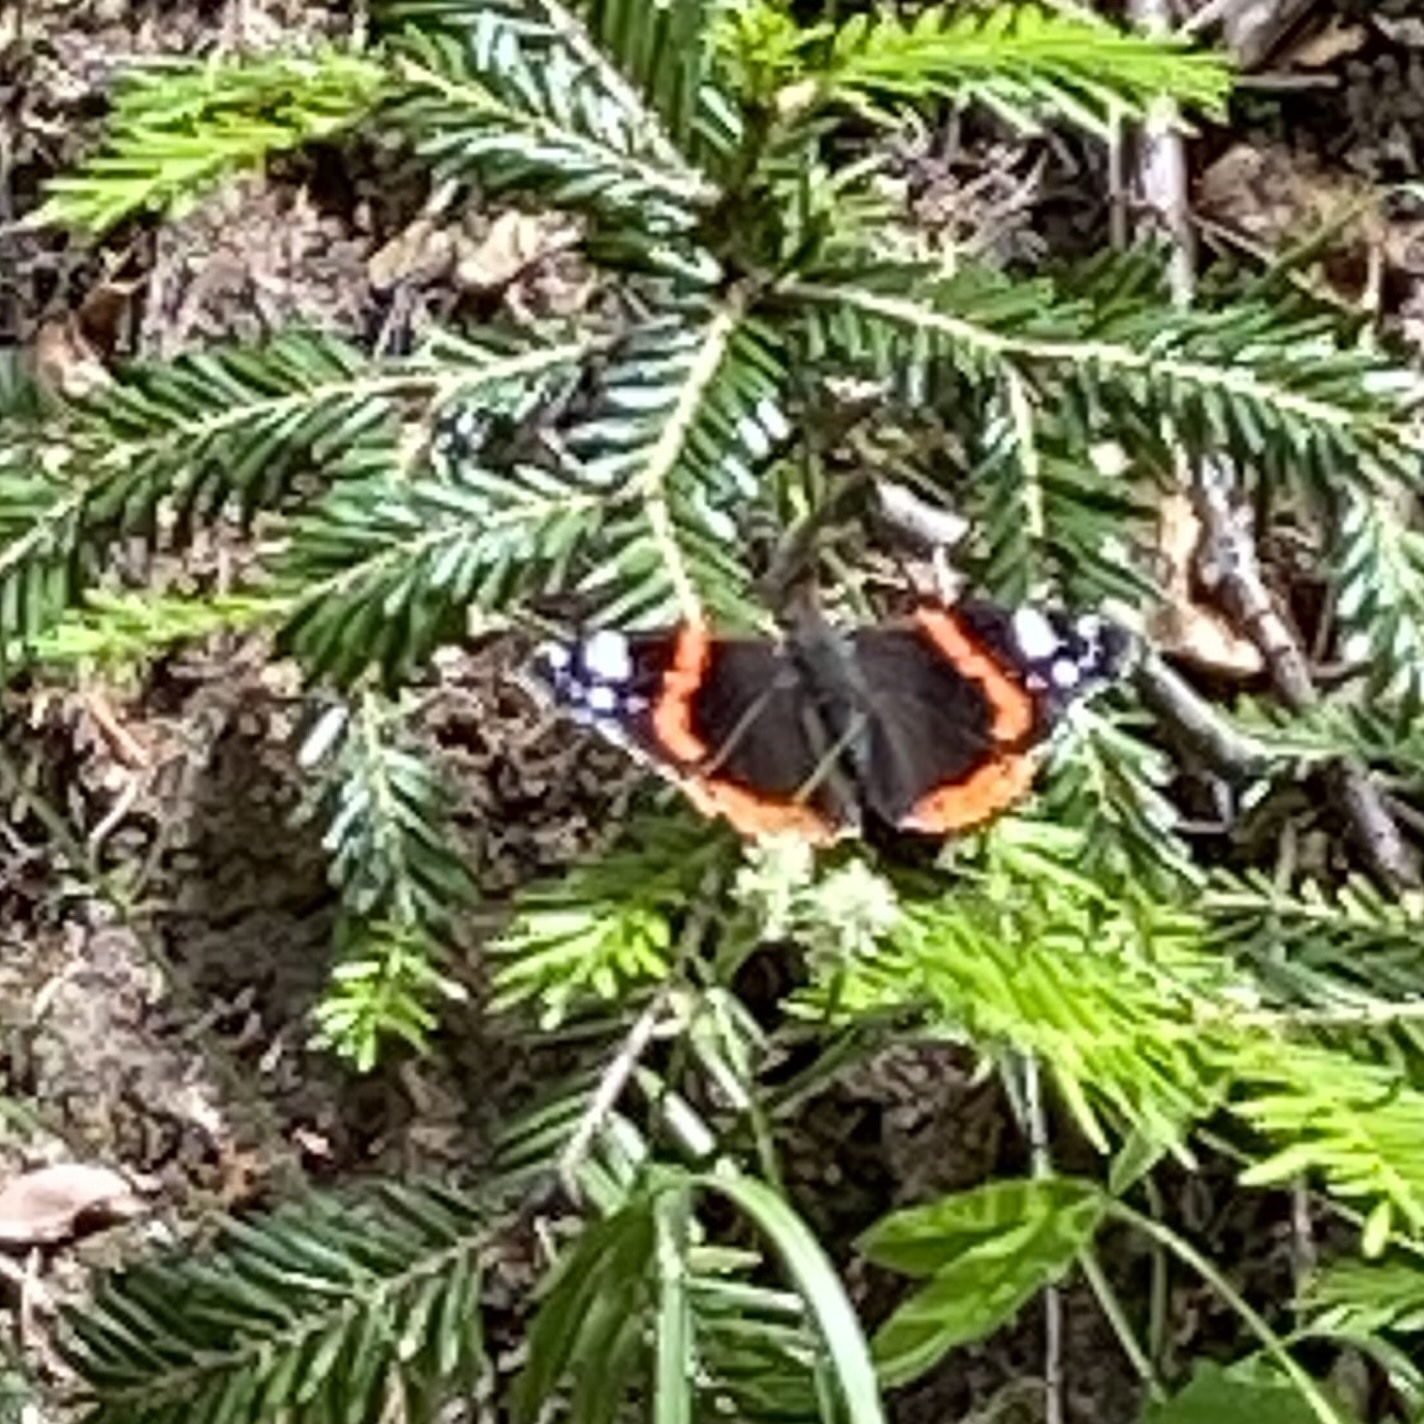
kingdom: Animalia
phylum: Arthropoda
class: Insecta
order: Lepidoptera
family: Nymphalidae
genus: Vanessa
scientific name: Vanessa atalanta
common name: Red admiral
